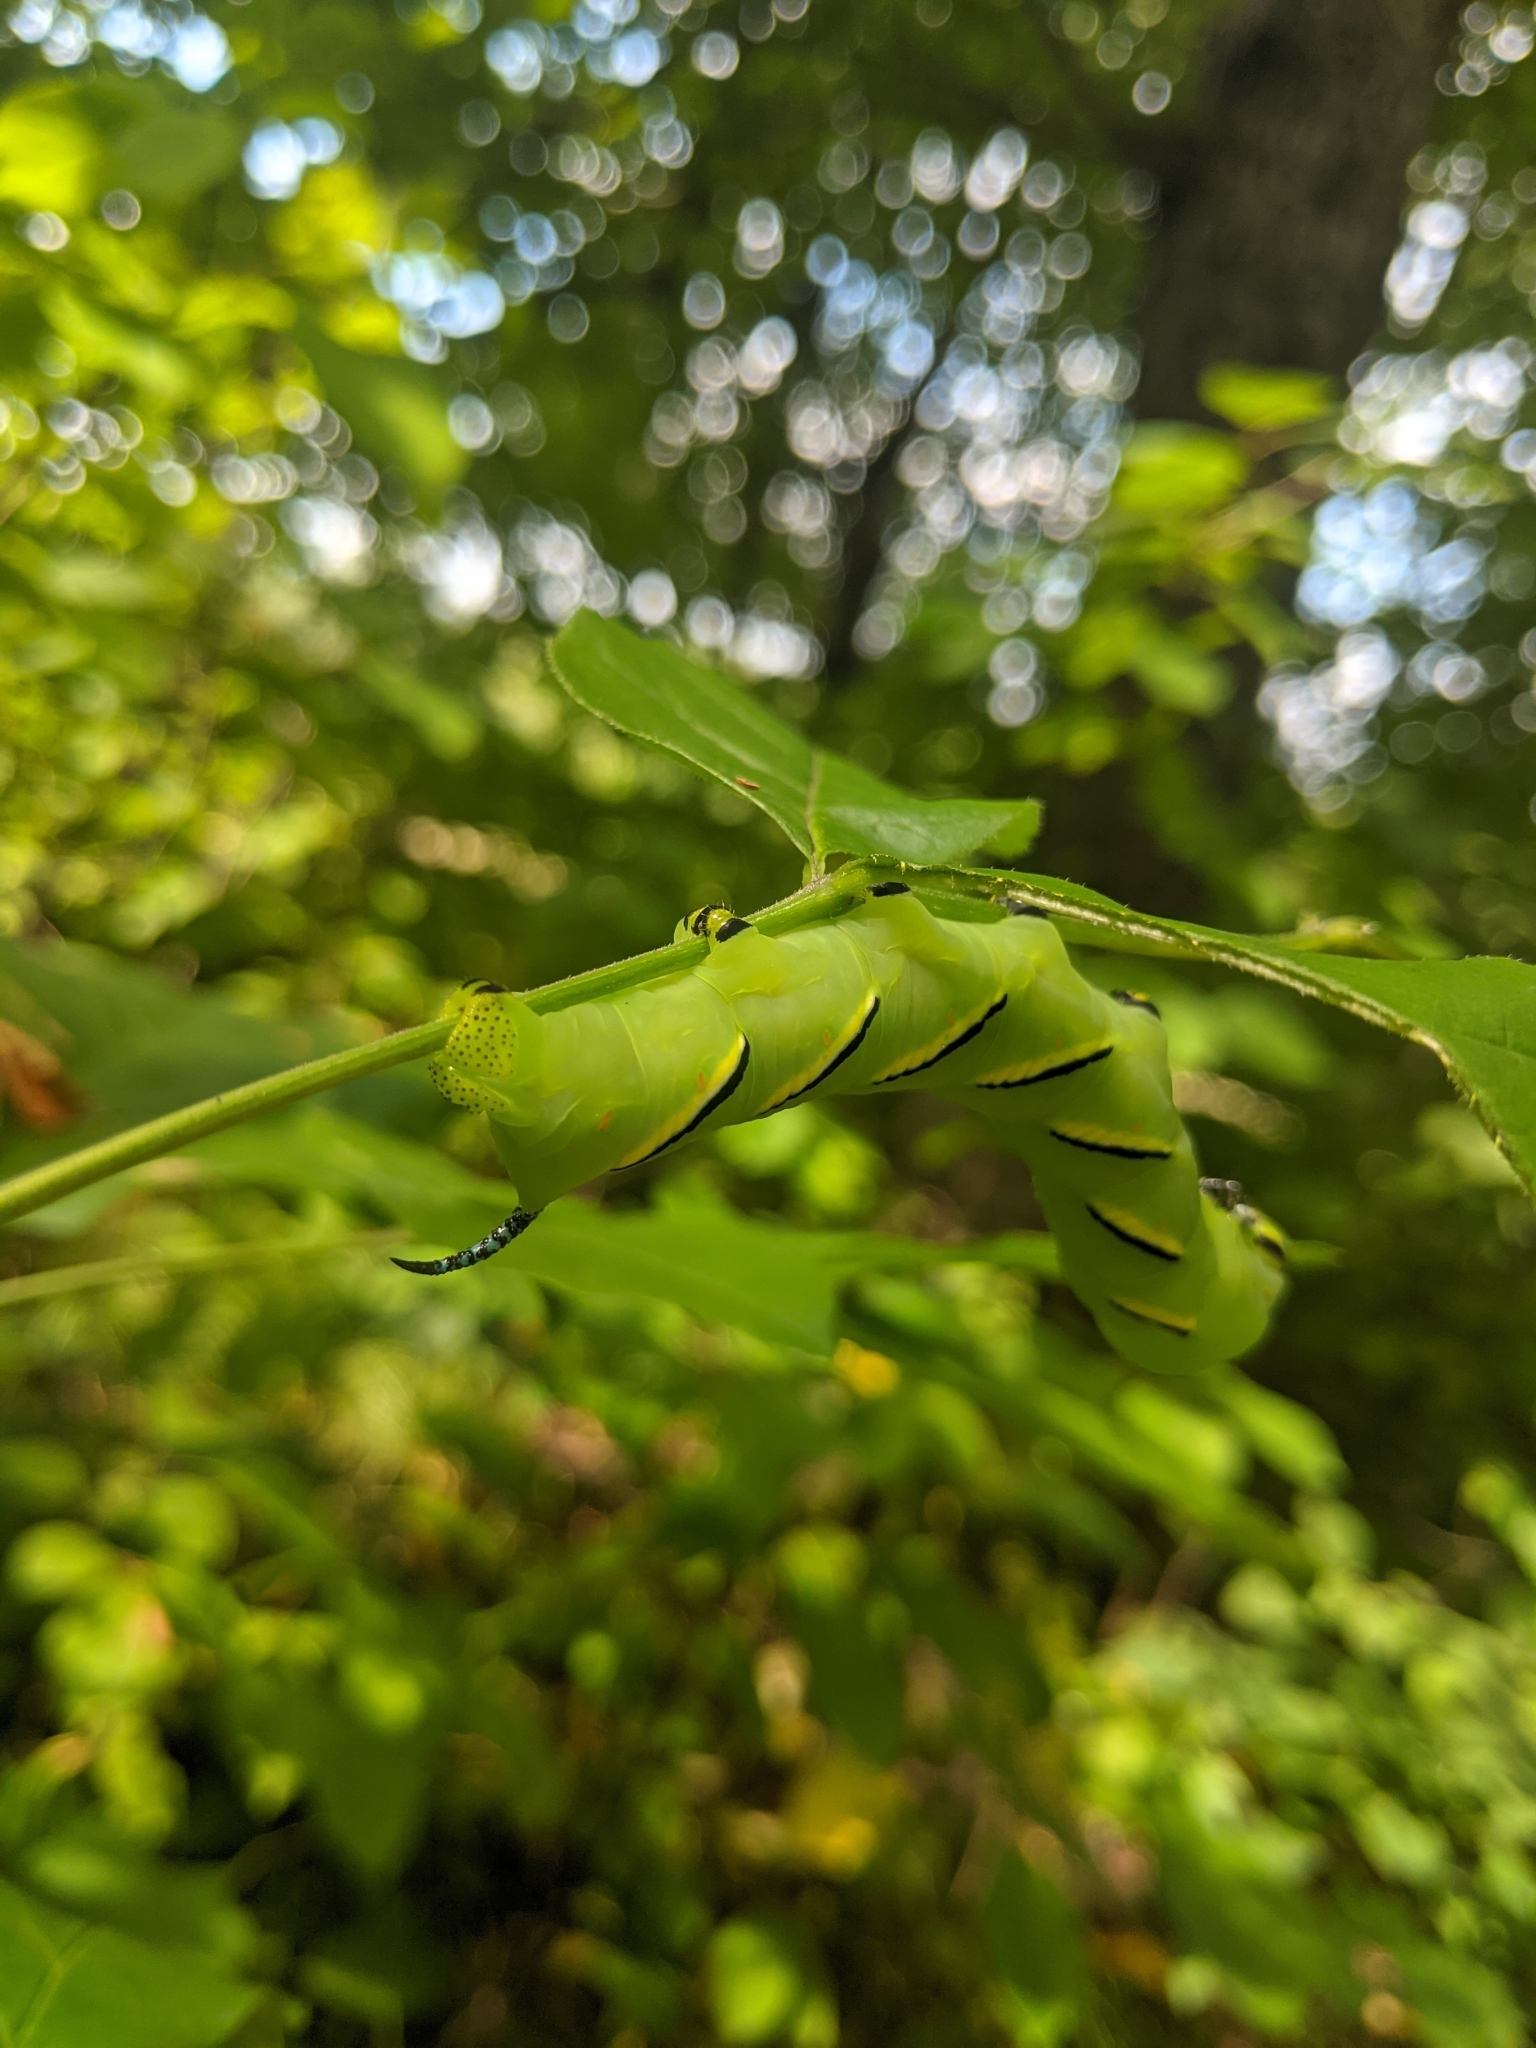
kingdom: Animalia
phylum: Arthropoda
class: Insecta
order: Lepidoptera
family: Sphingidae
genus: Sphinx
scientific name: Sphinx kalmiae
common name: Laurel sphinx
